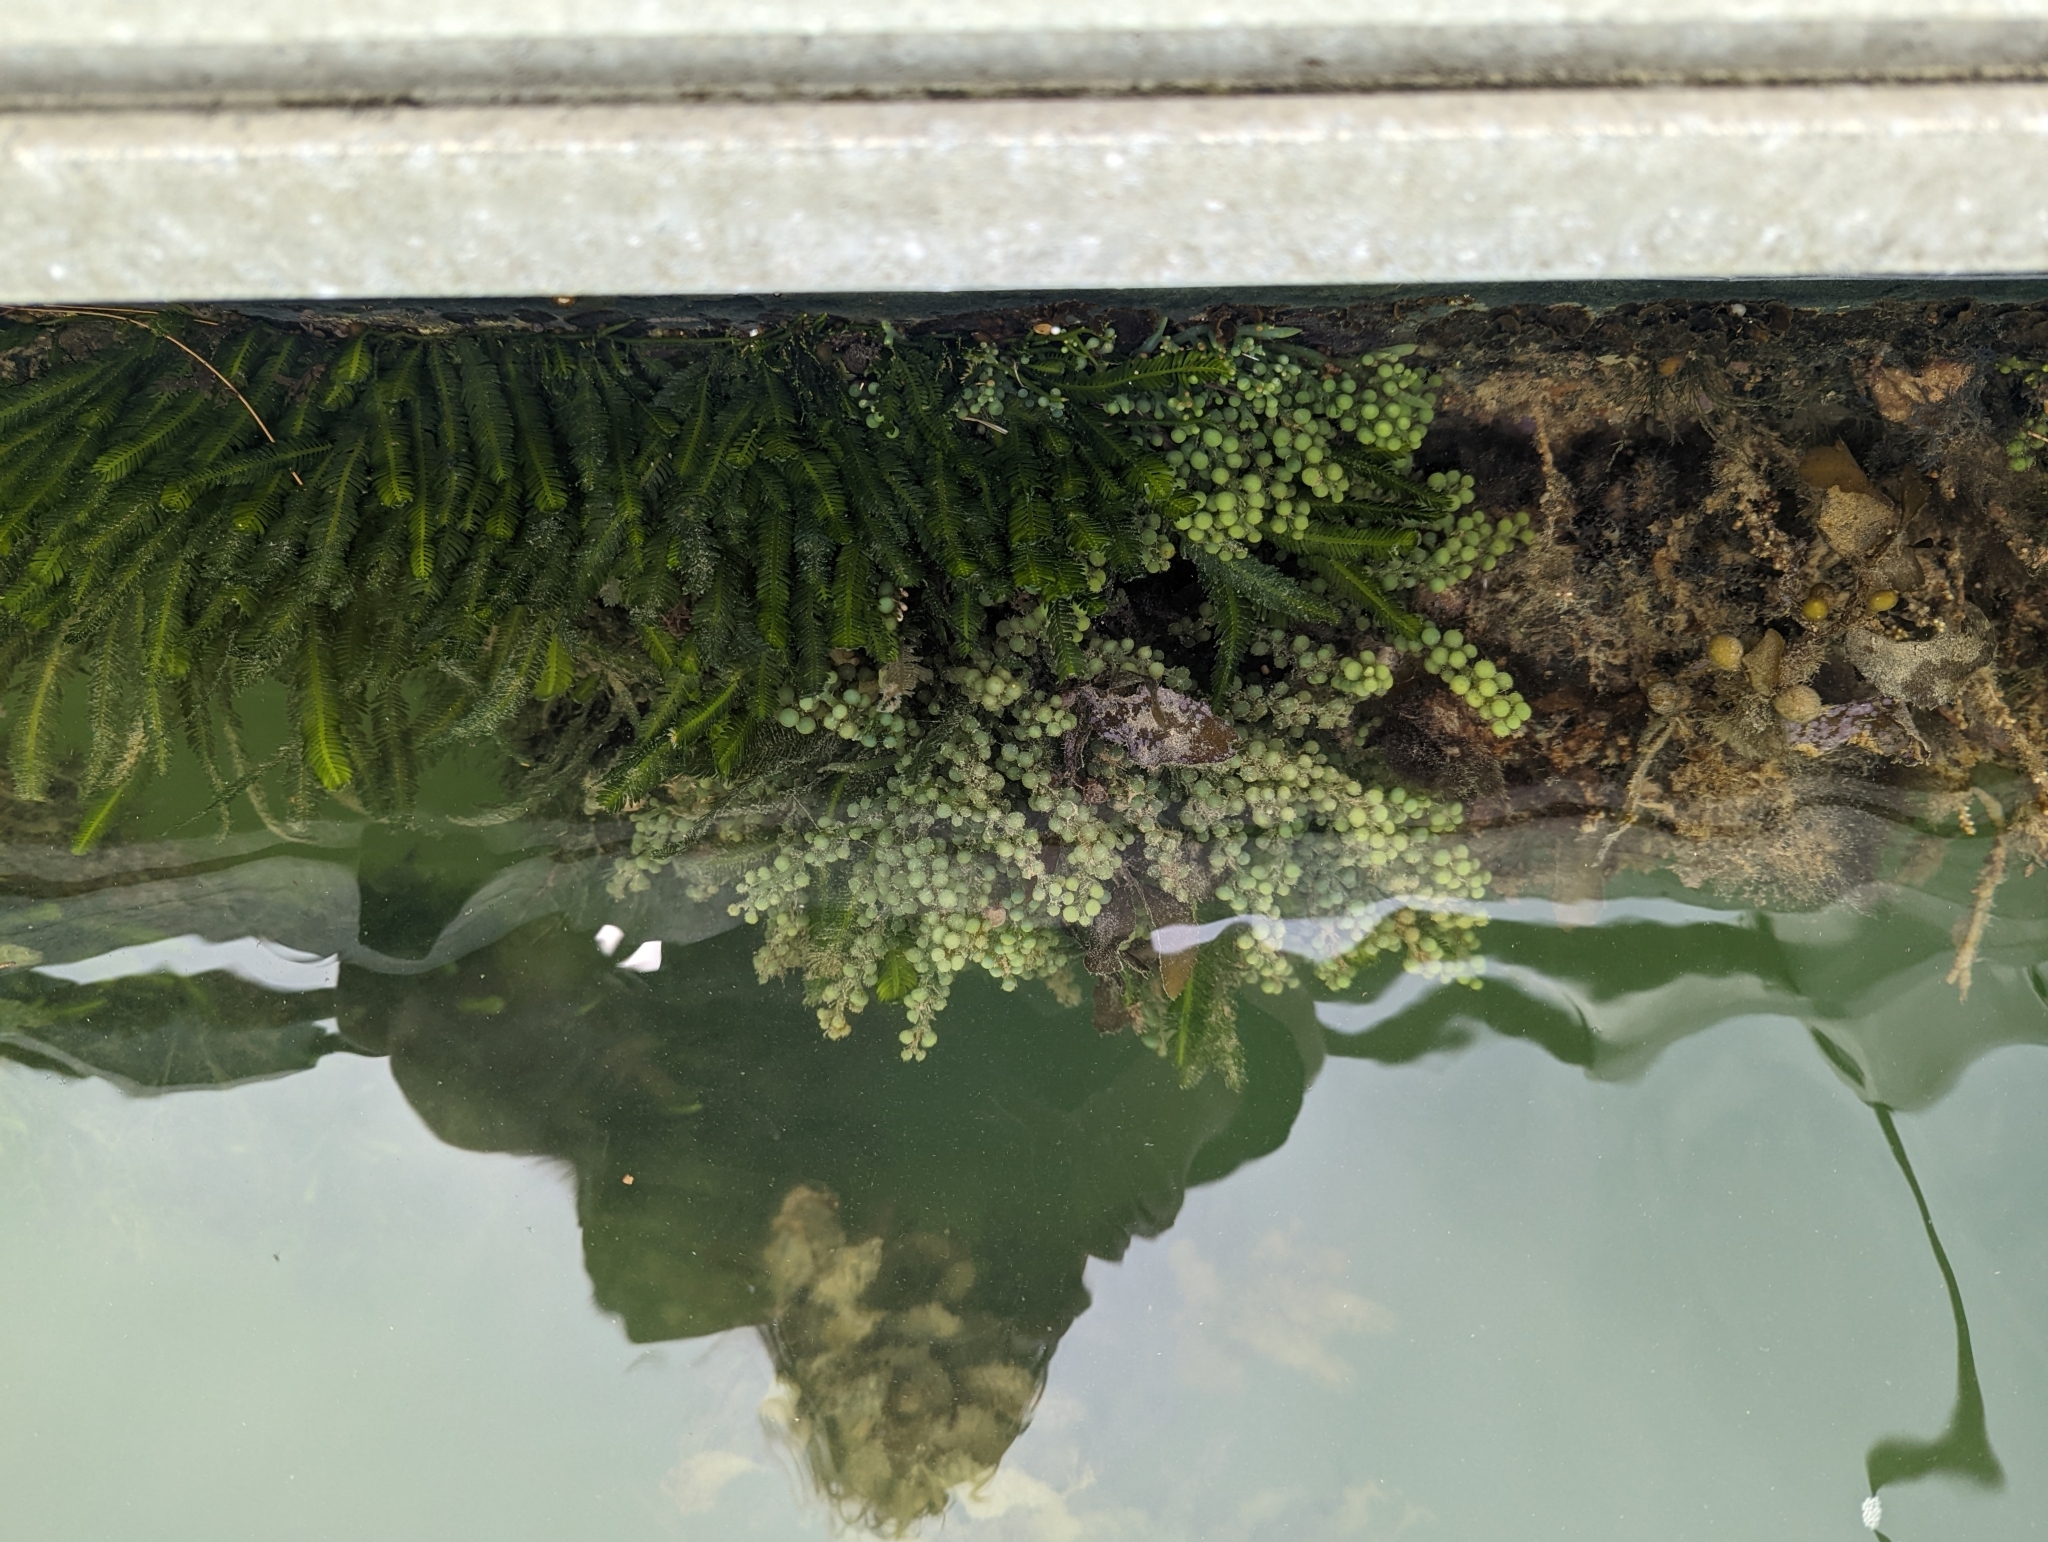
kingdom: Plantae
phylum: Chlorophyta
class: Ulvophyceae
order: Bryopsidales
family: Caulerpaceae
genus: Caulerpa
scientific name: Caulerpa taxifolia
